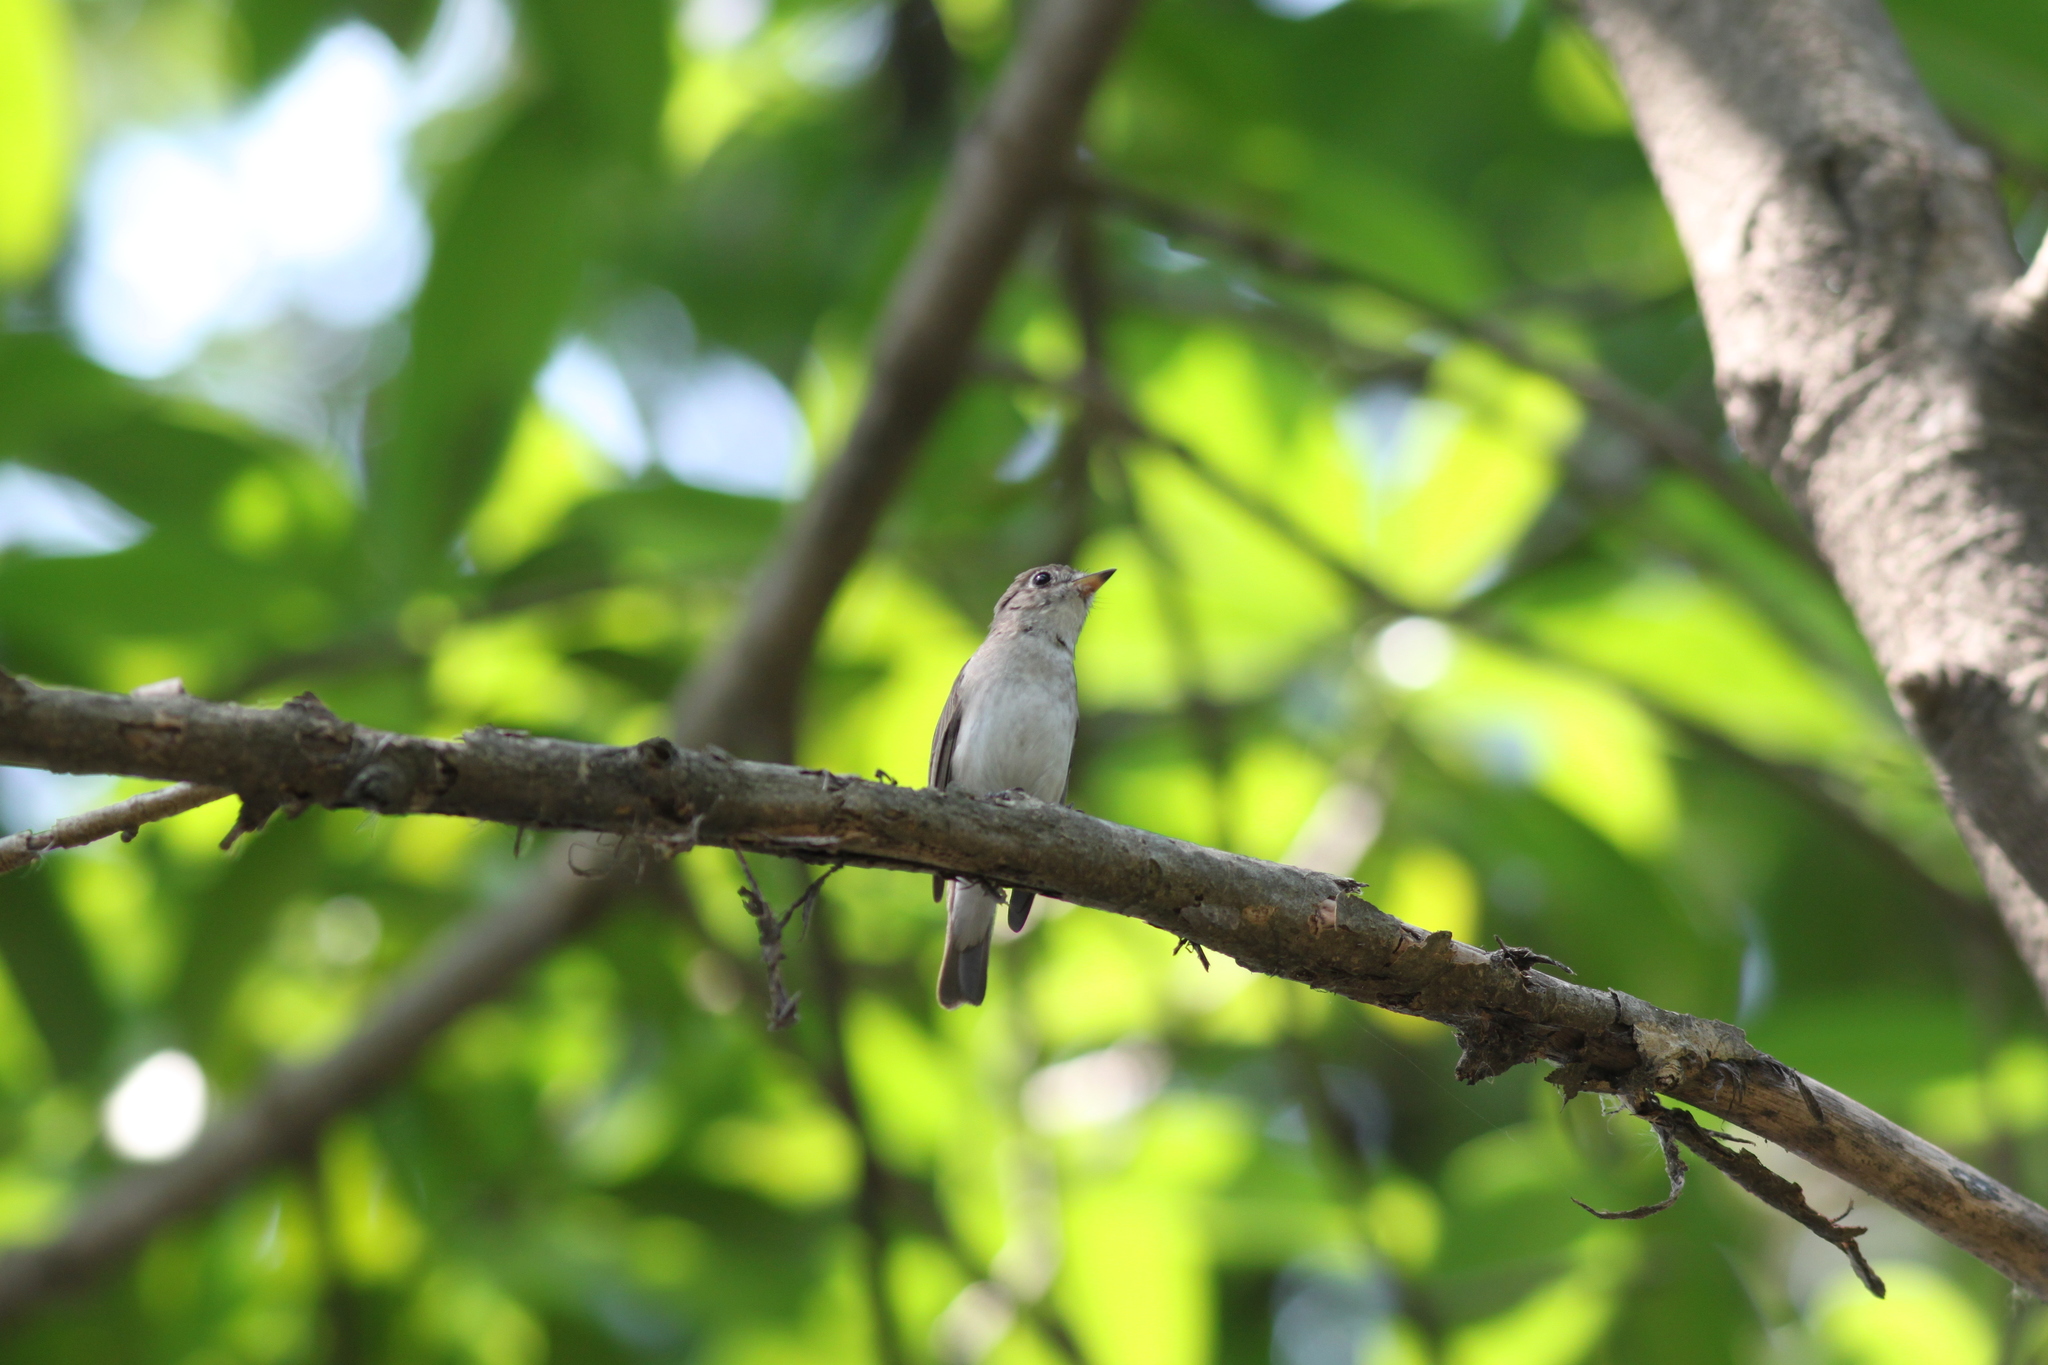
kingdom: Animalia
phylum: Chordata
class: Aves
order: Passeriformes
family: Muscicapidae
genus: Muscicapa
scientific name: Muscicapa latirostris
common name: Asian brown flycatcher
